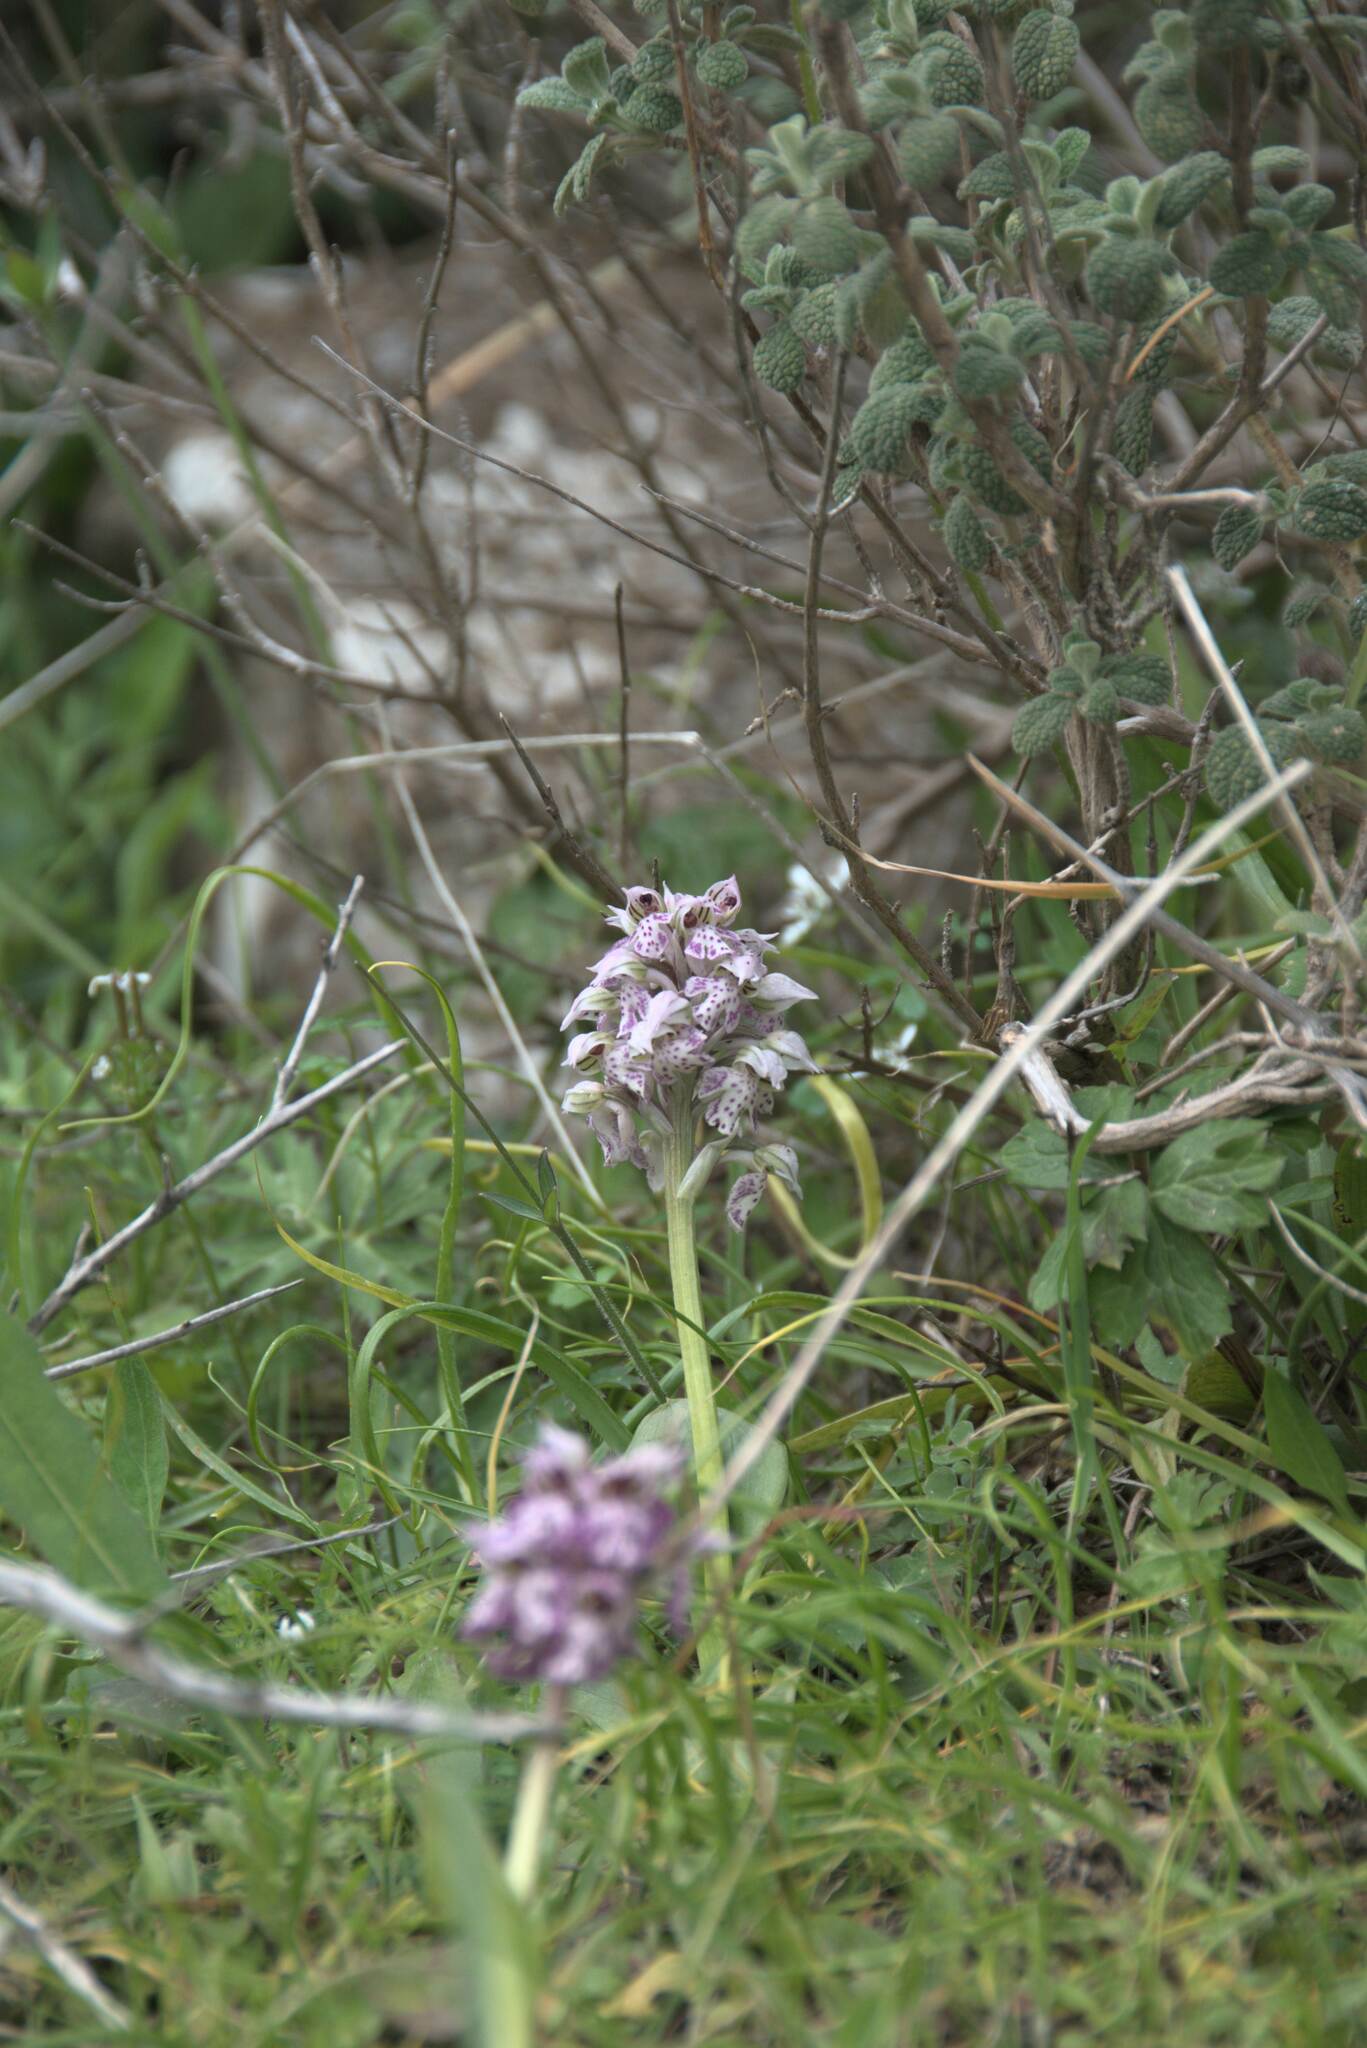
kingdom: Plantae
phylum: Tracheophyta
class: Liliopsida
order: Asparagales
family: Orchidaceae
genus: Neotinea
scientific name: Neotinea lactea
